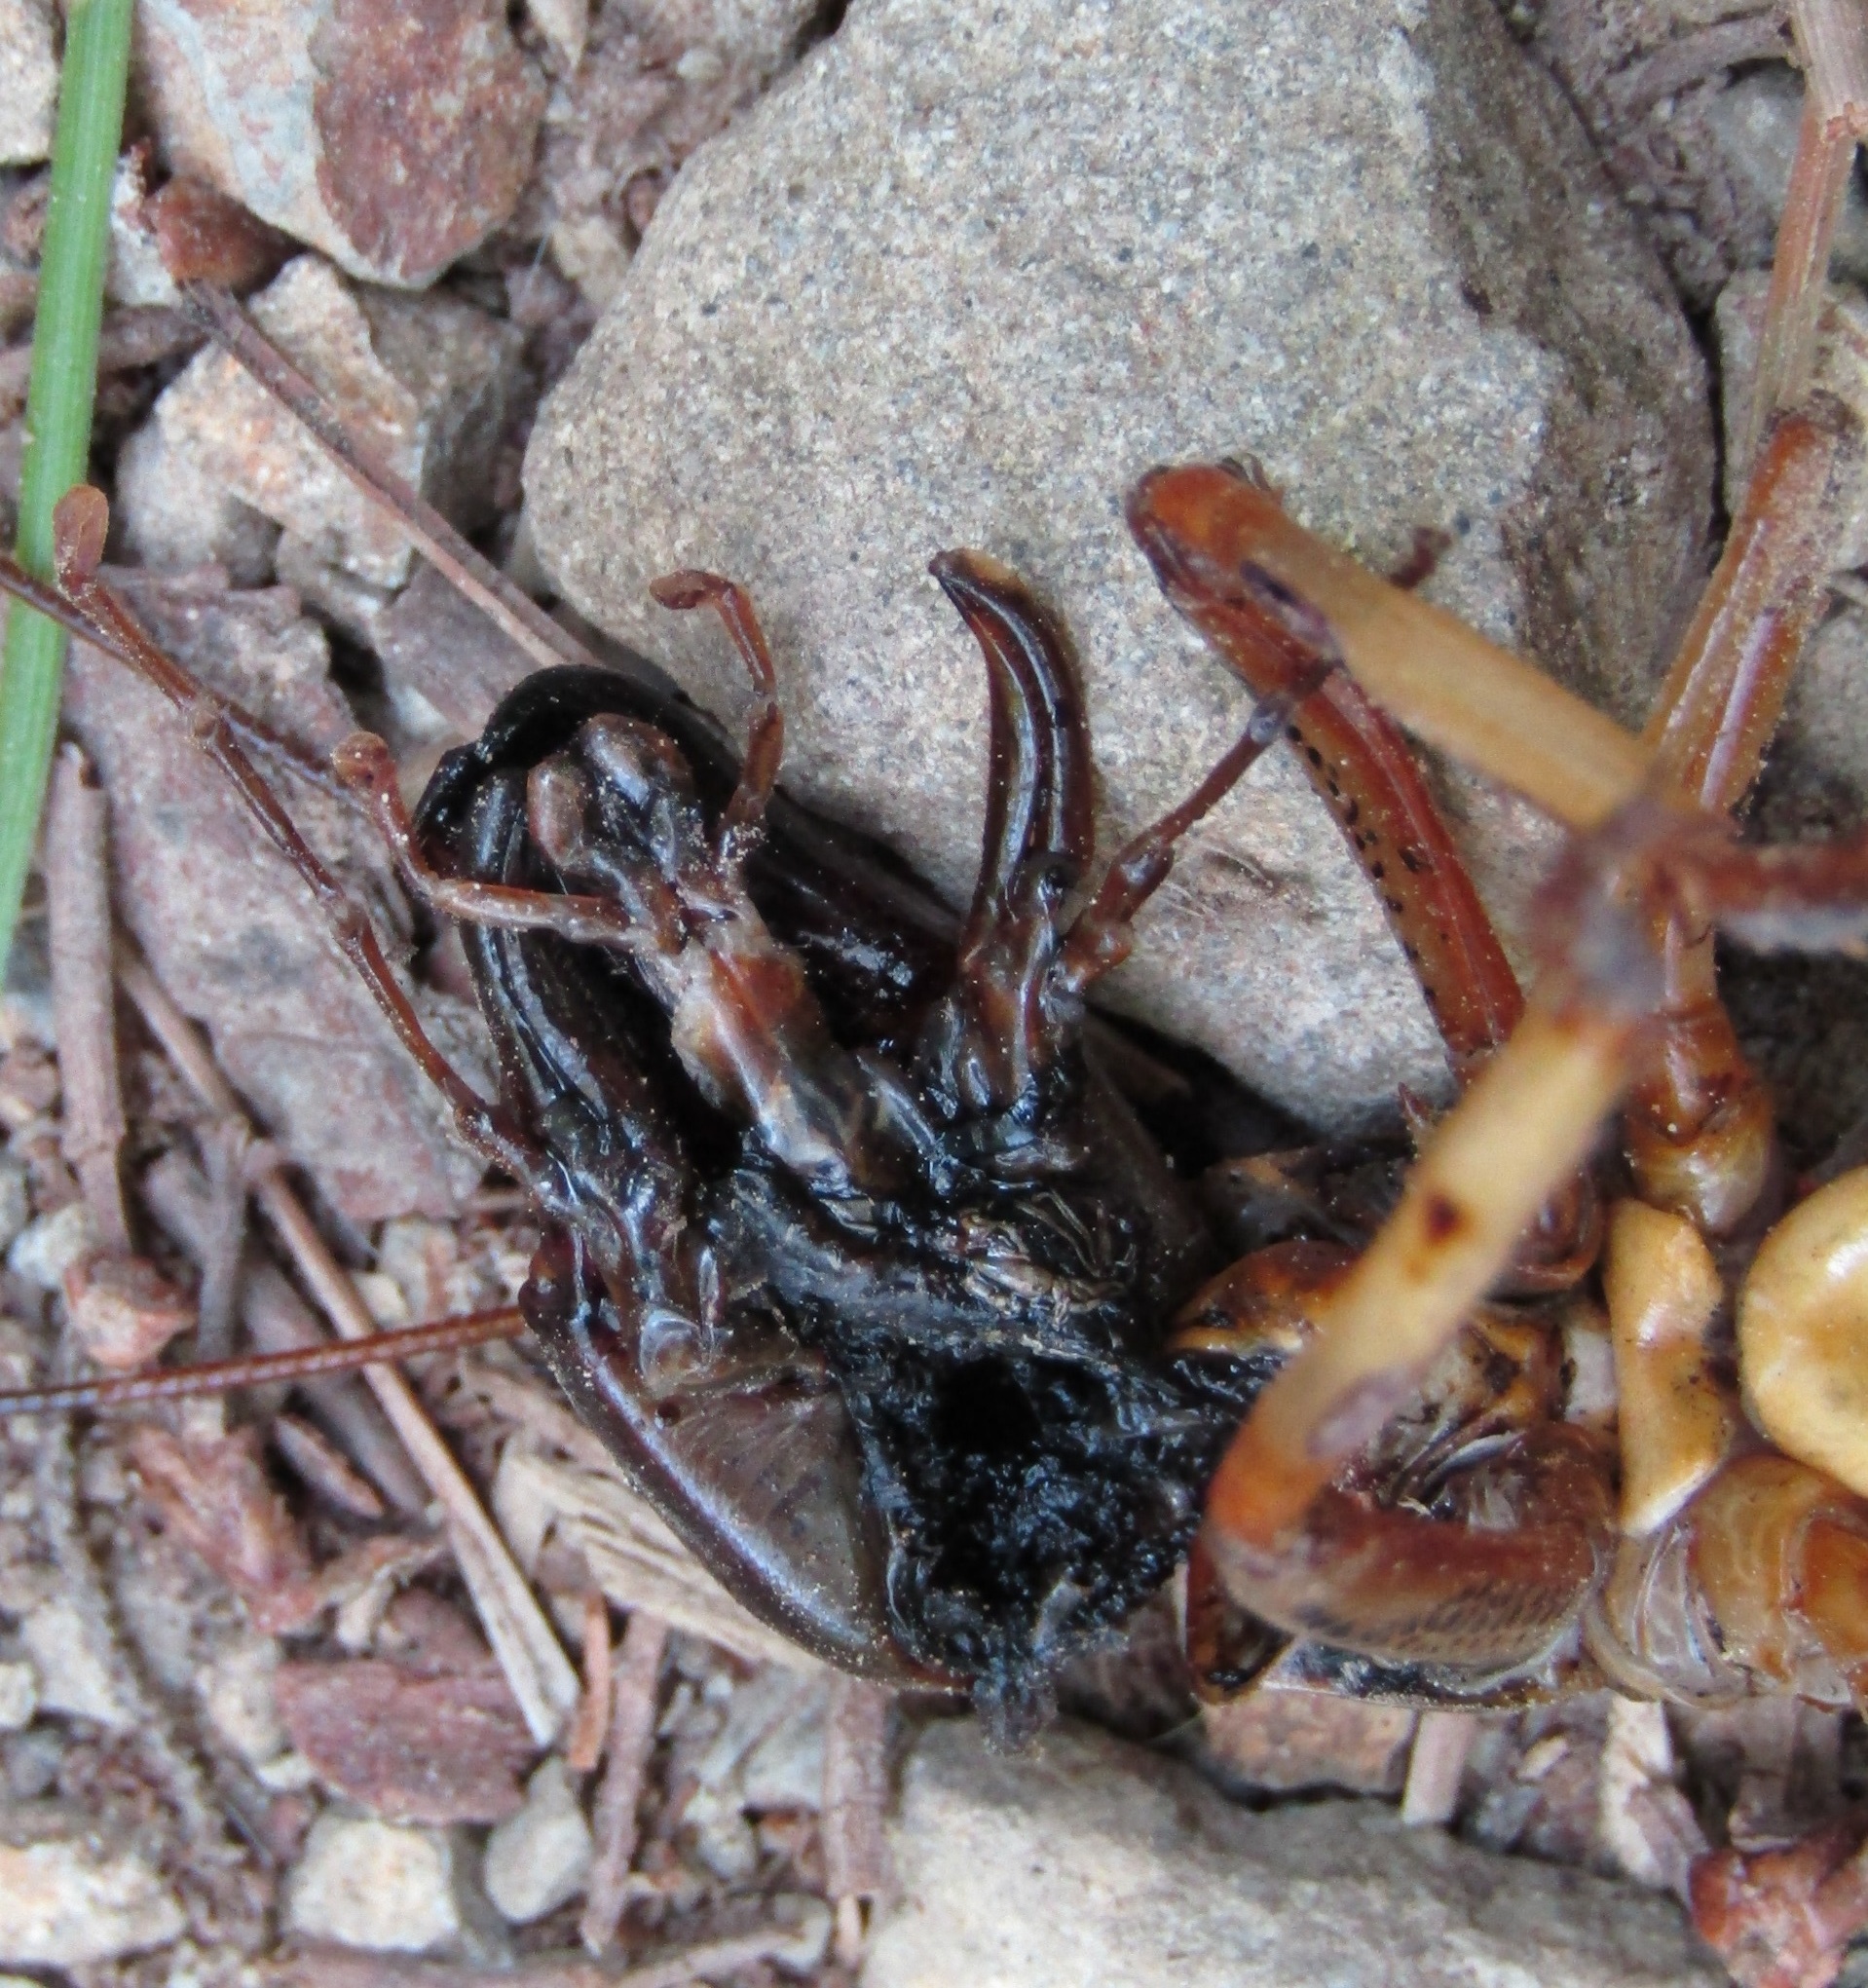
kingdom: Animalia
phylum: Arthropoda
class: Insecta
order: Orthoptera
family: Anostostomatidae
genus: Hemideina
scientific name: Hemideina crassidens
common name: Wellington tree weta
